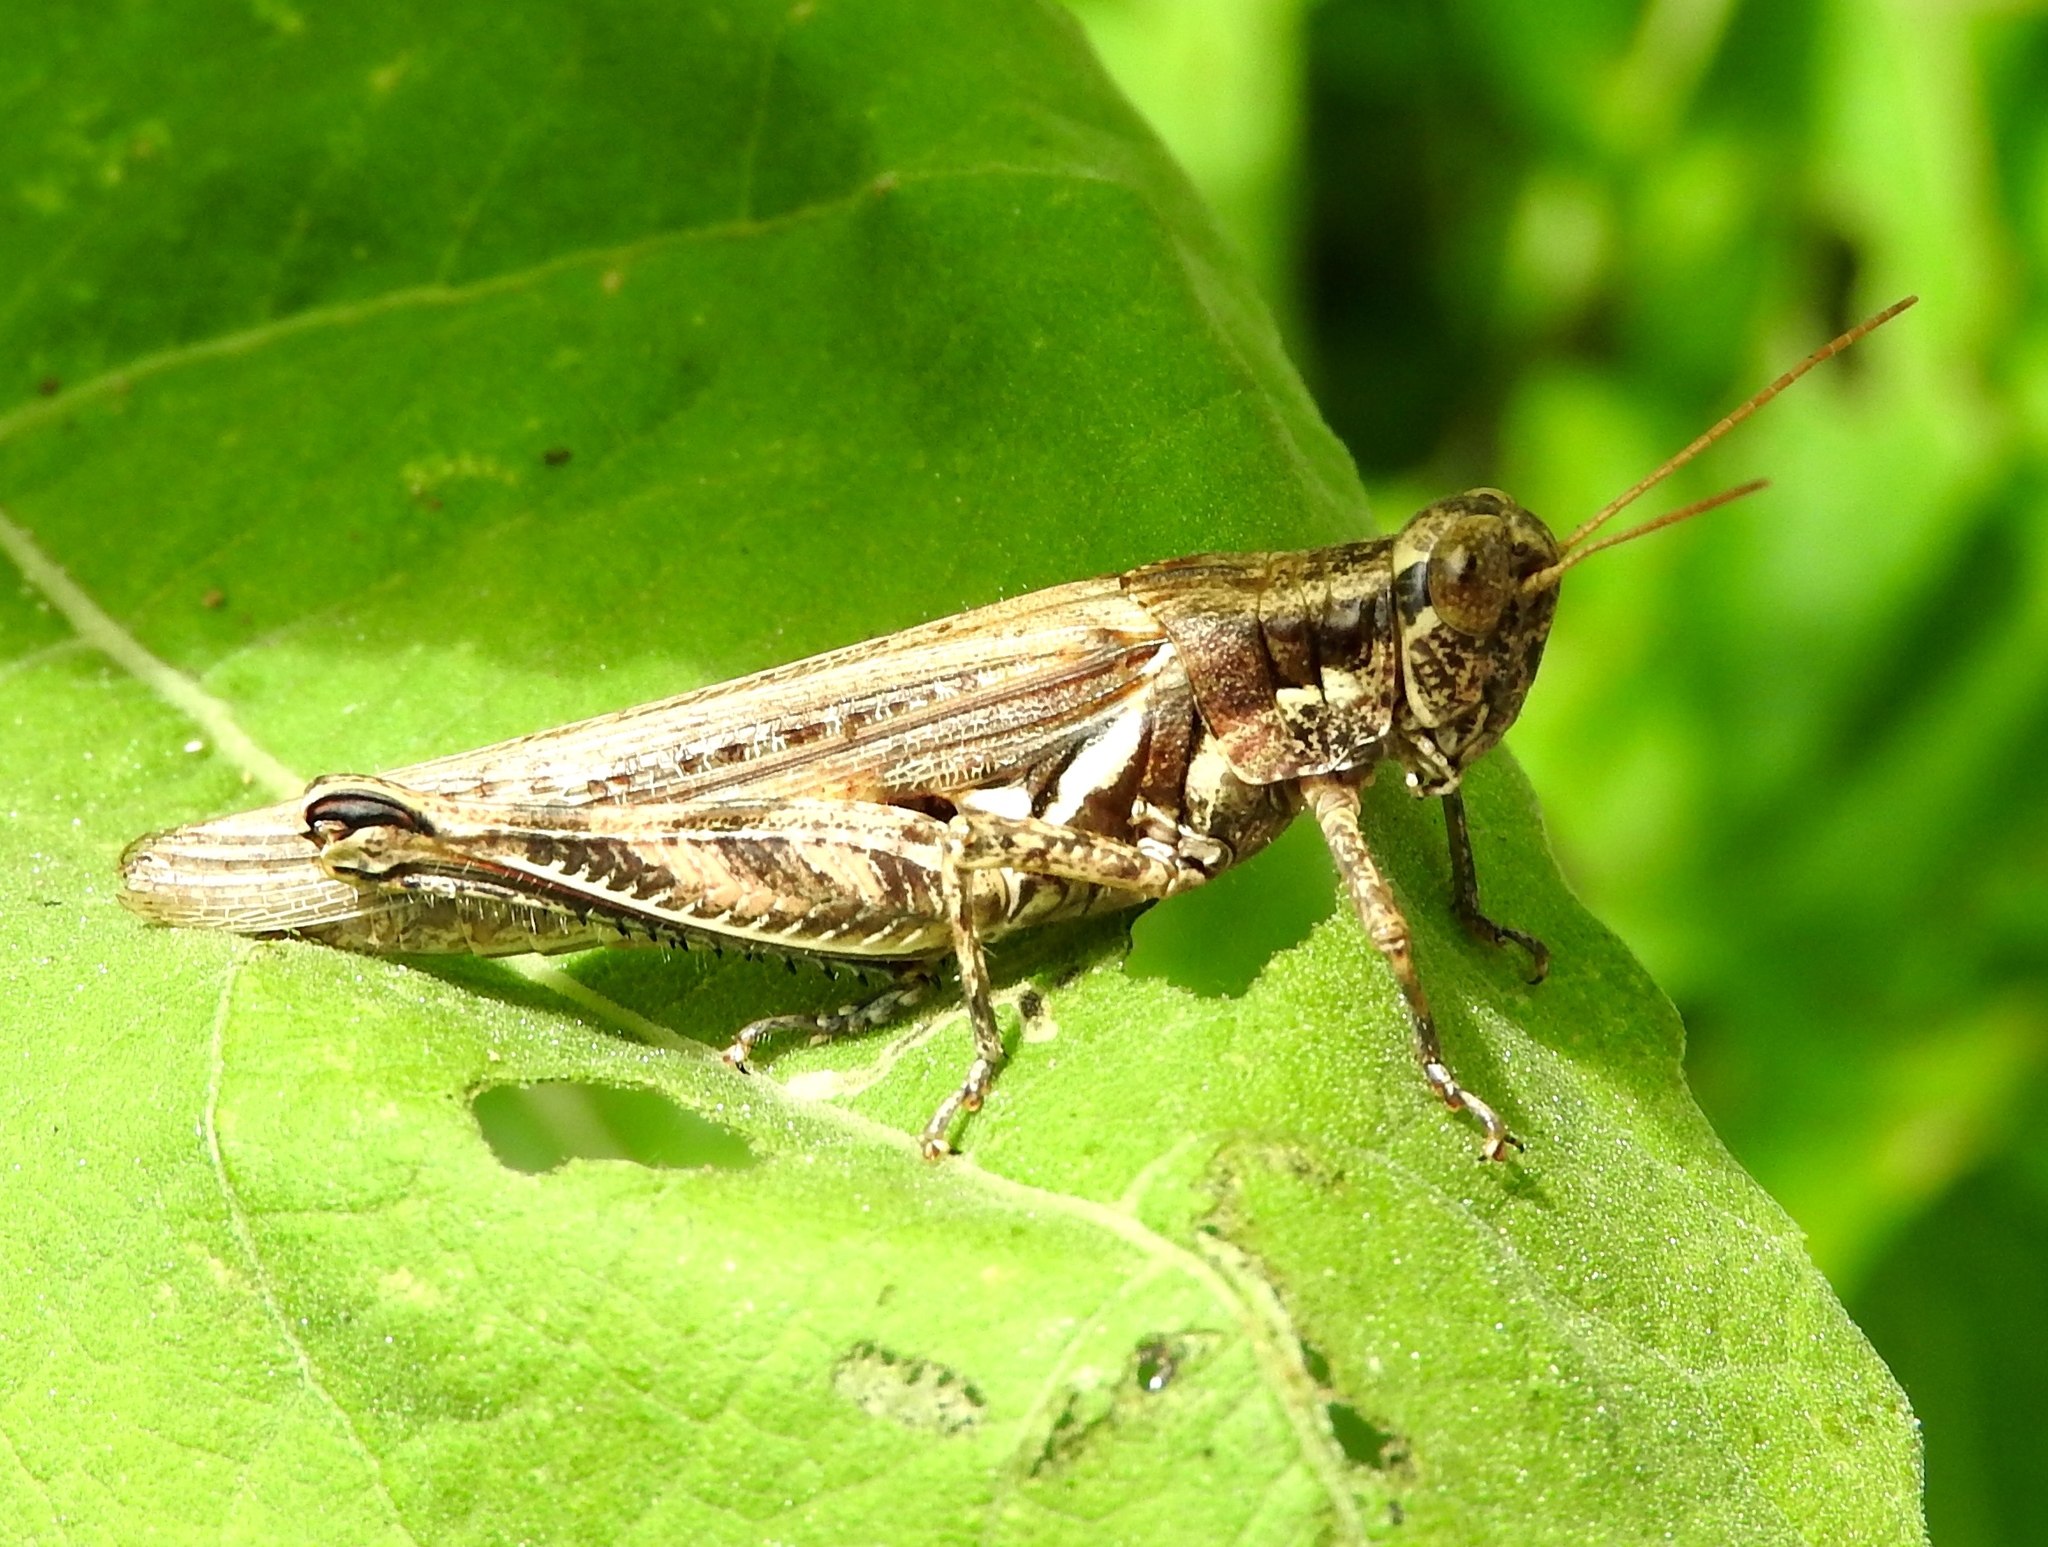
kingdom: Animalia
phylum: Arthropoda
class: Insecta
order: Orthoptera
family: Acrididae
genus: Melanoplus
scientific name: Melanoplus
